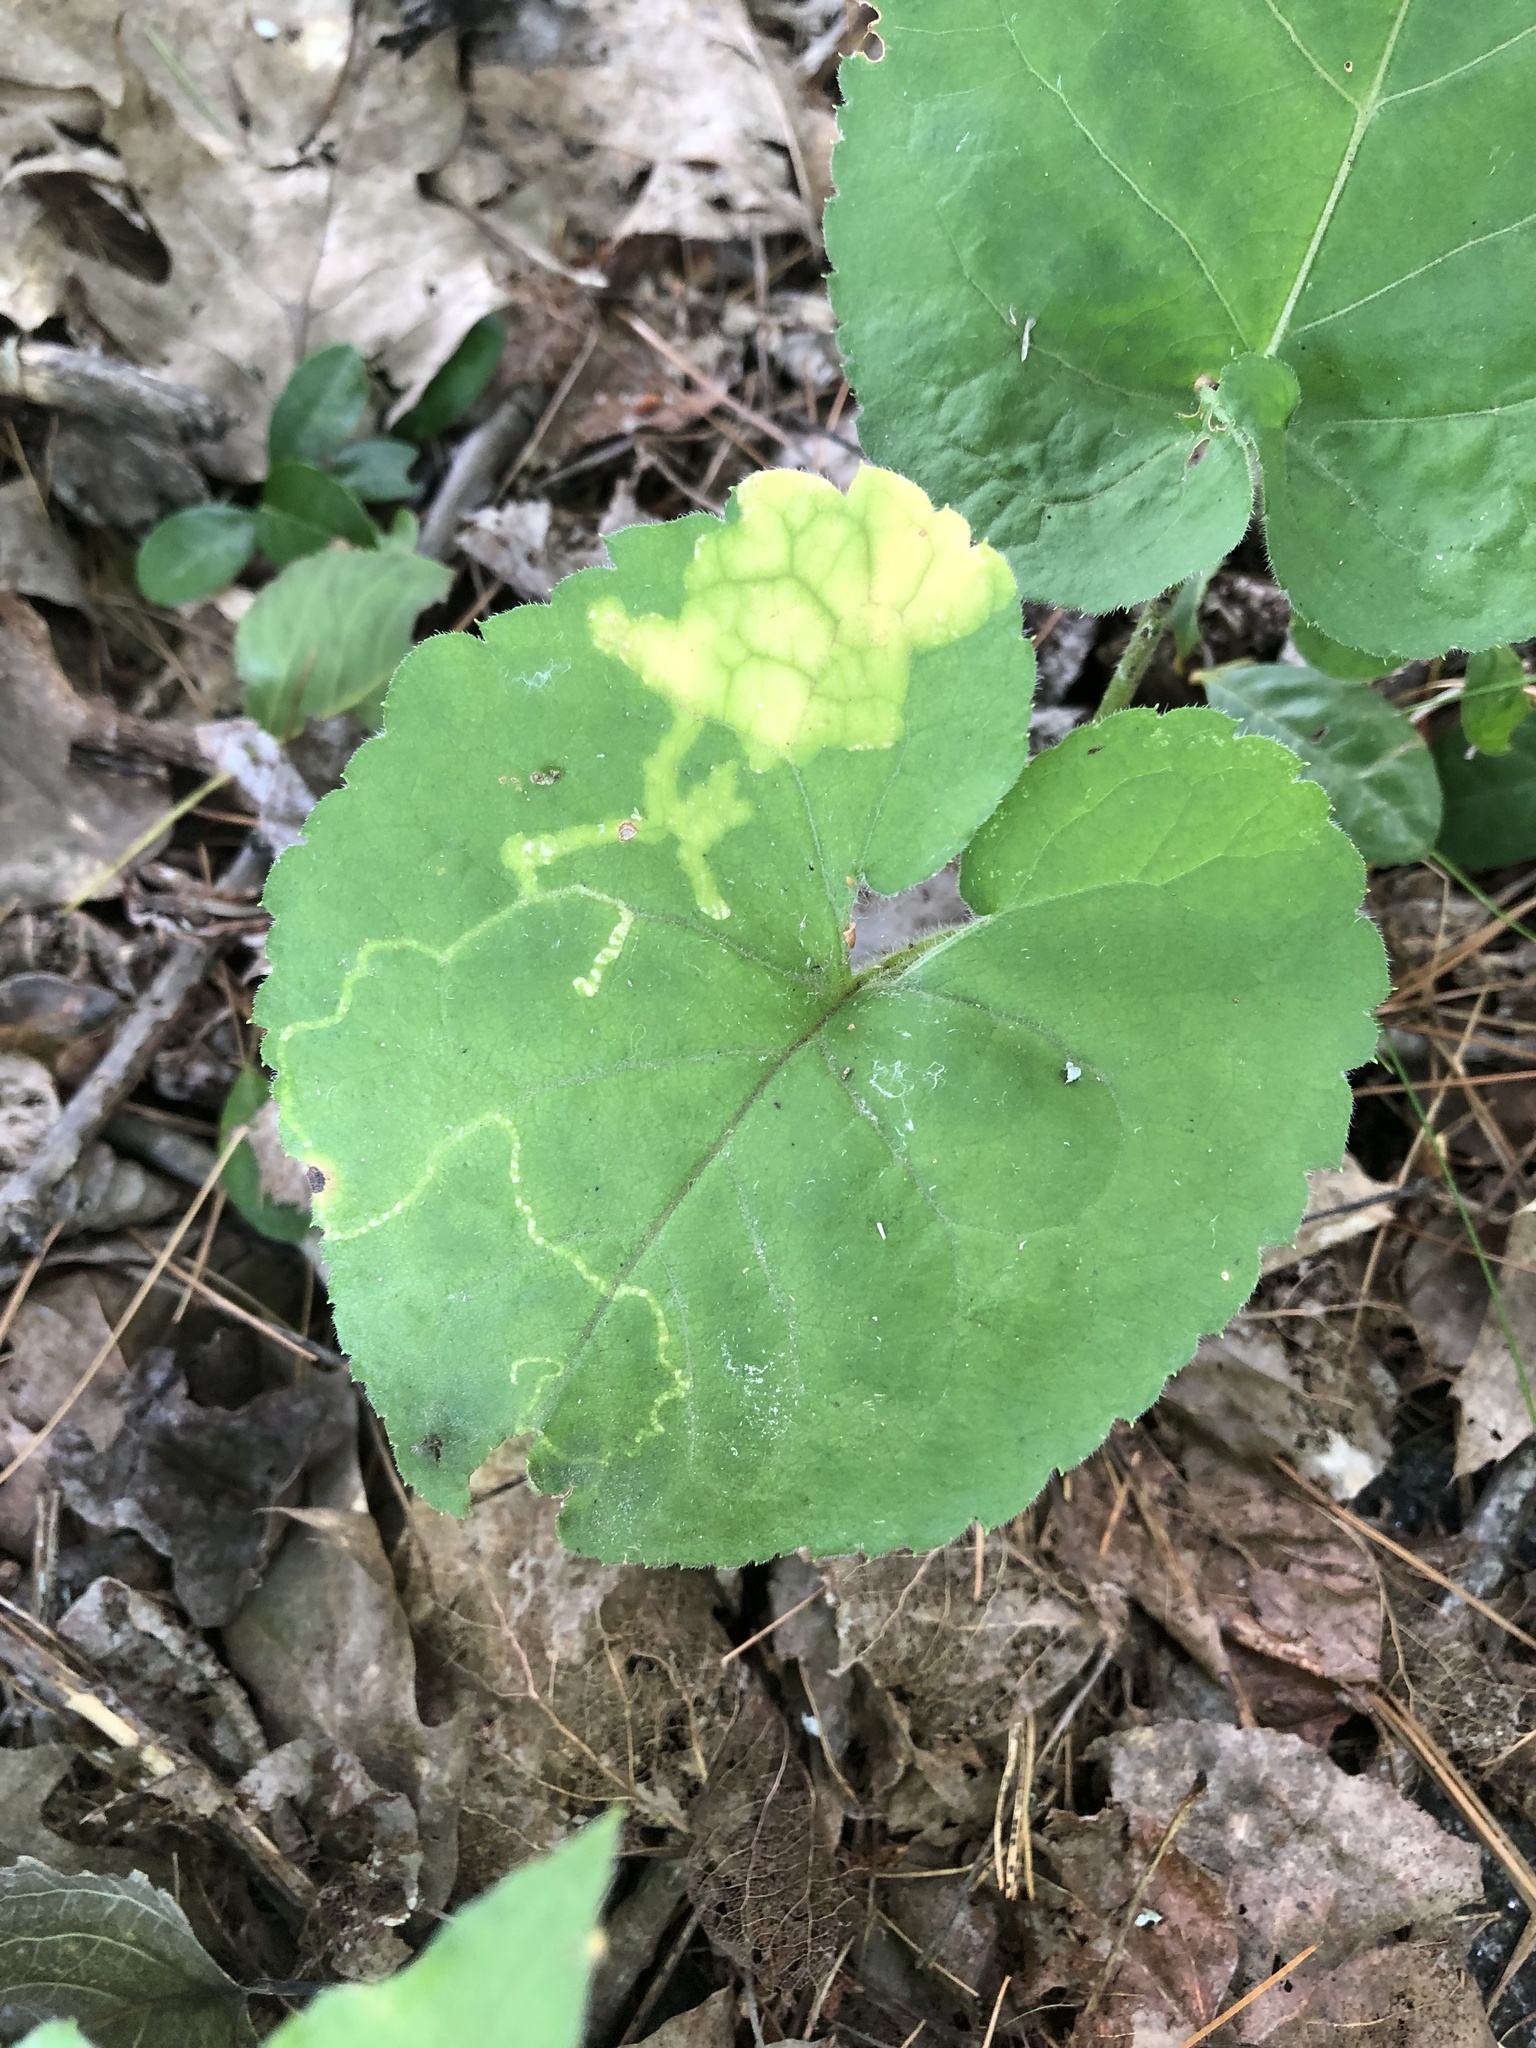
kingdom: Animalia
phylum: Arthropoda
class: Insecta
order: Lepidoptera
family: Gracillariidae
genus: Acrocercops
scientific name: Acrocercops astericola
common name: Aster tentiform blotchminer
